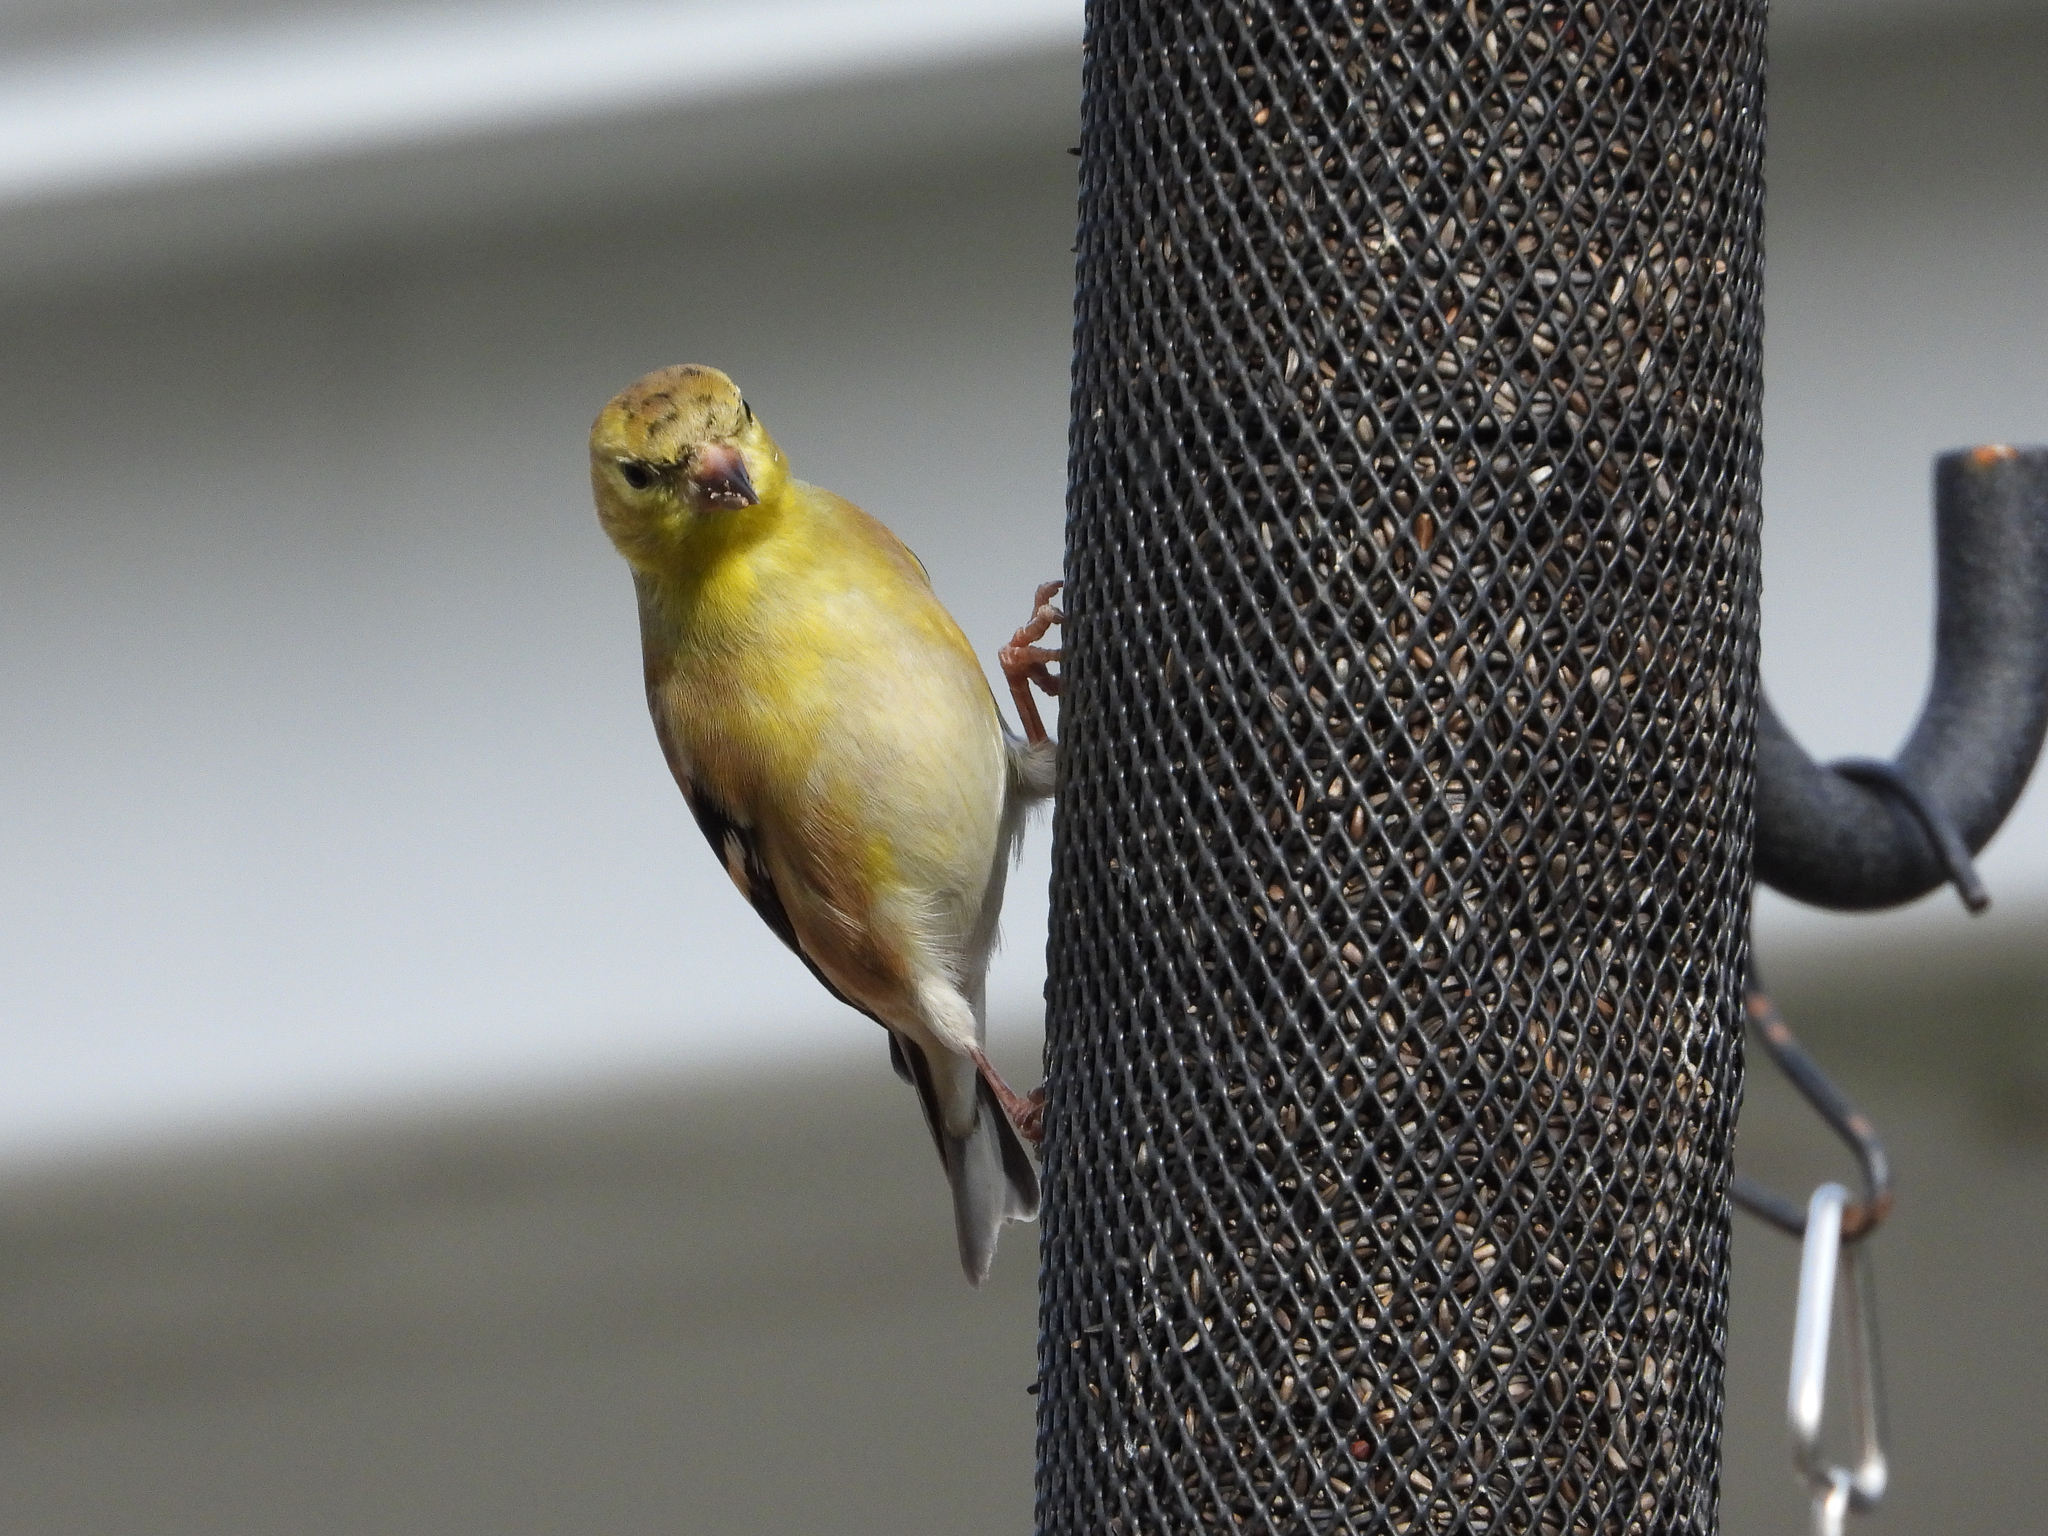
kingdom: Animalia
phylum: Chordata
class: Aves
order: Passeriformes
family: Fringillidae
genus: Spinus
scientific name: Spinus tristis
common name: American goldfinch
